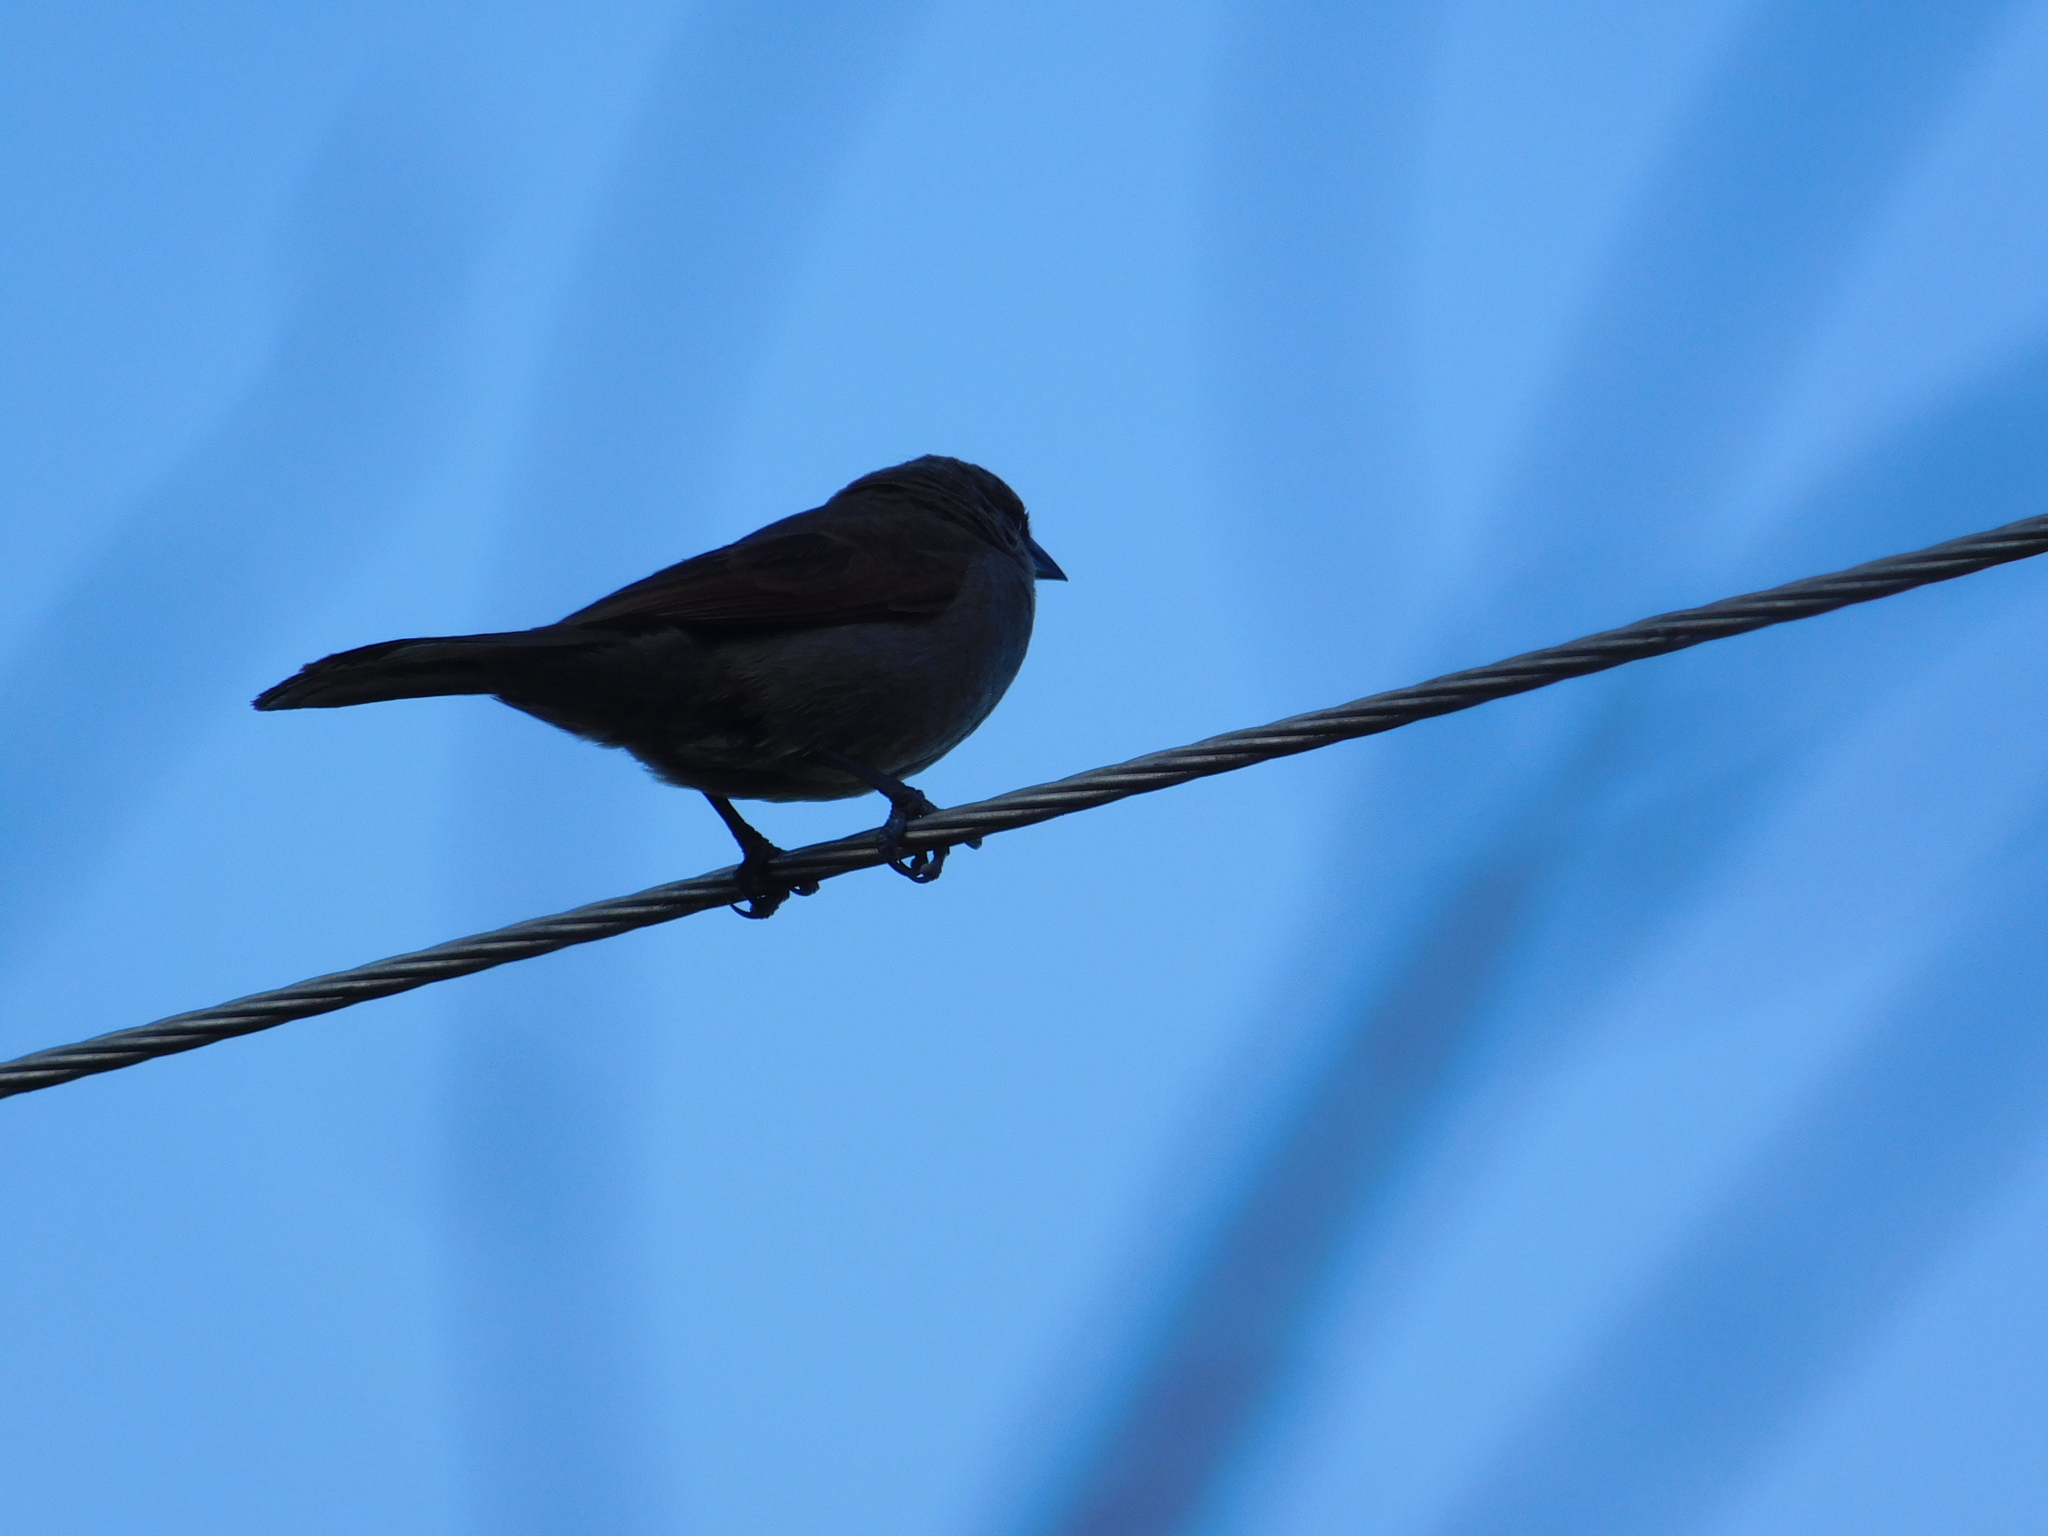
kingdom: Animalia
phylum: Chordata
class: Aves
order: Passeriformes
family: Icteridae
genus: Agelaioides
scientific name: Agelaioides badius
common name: Baywing
